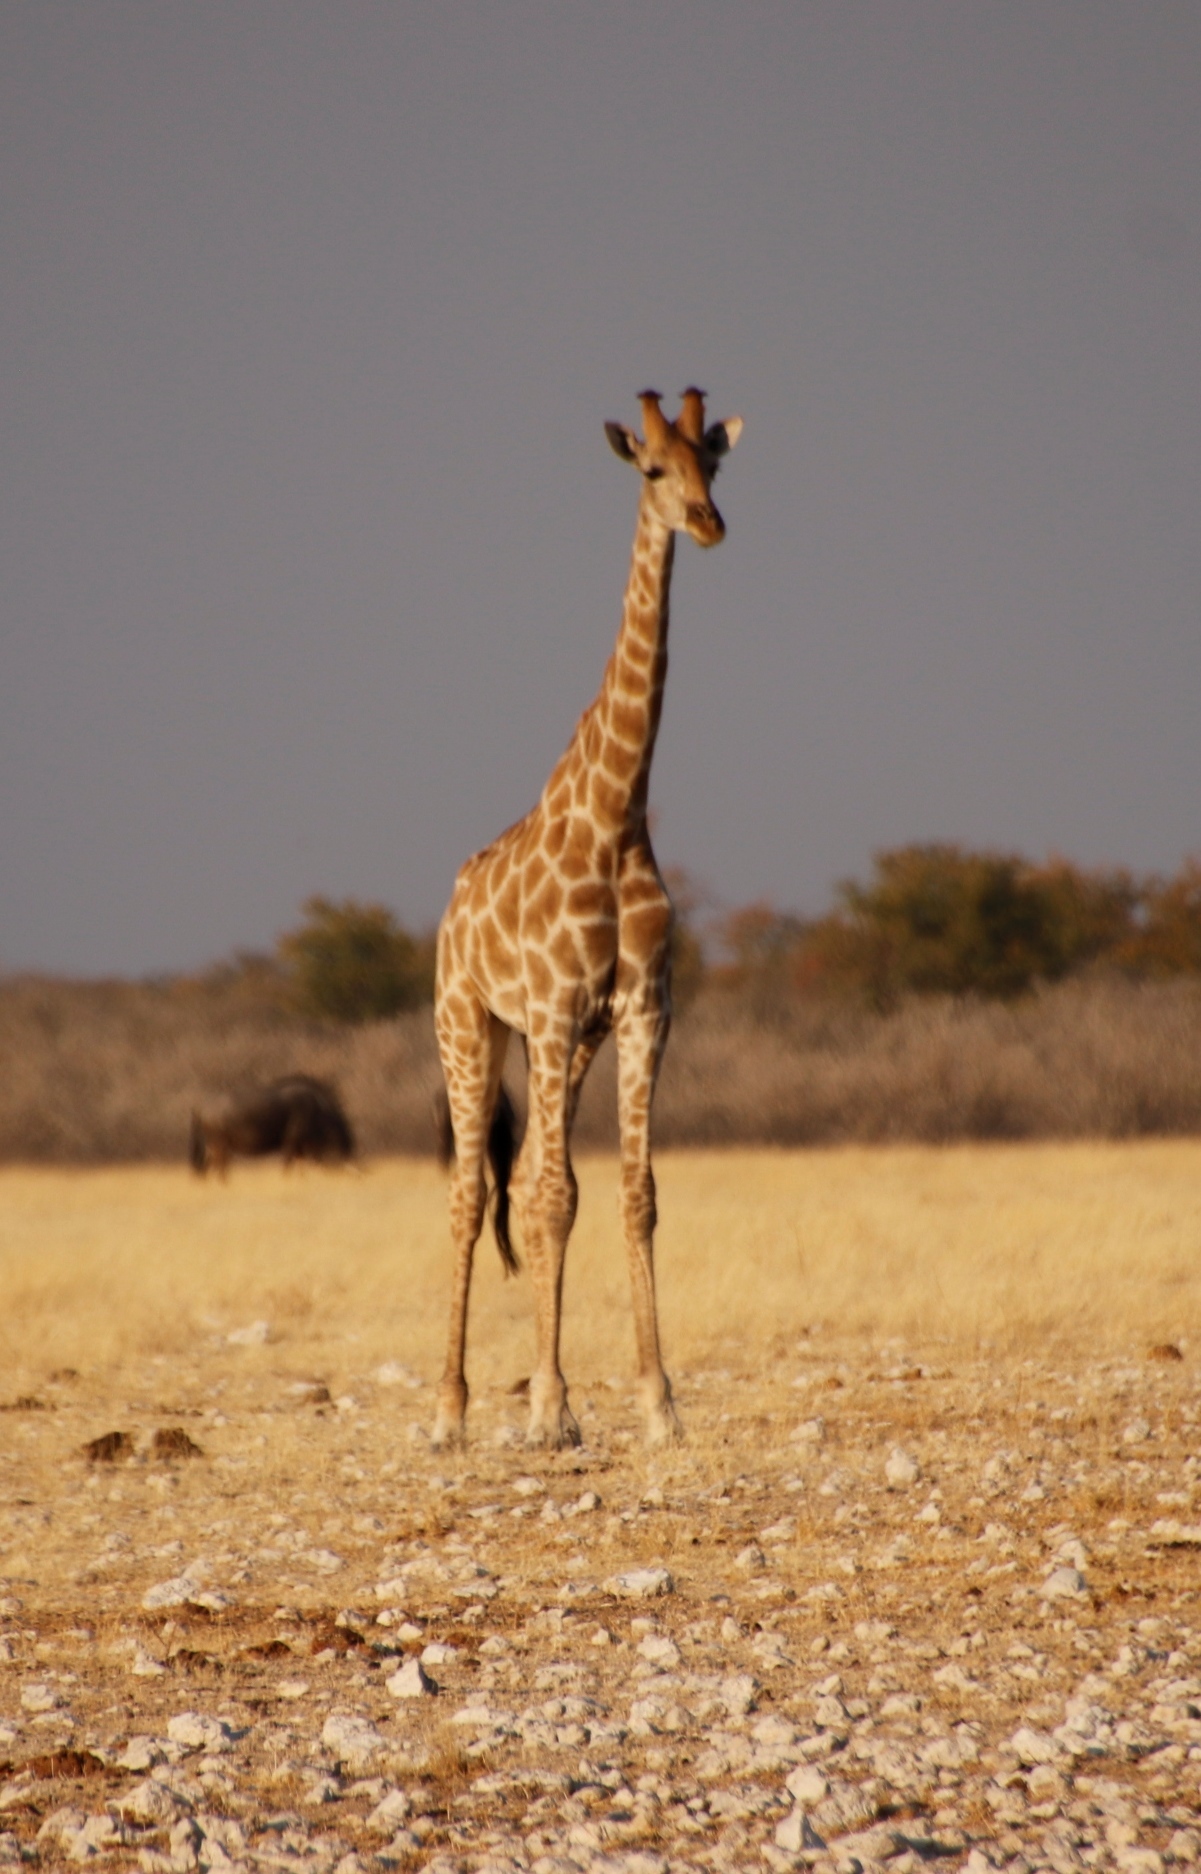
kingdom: Animalia
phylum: Chordata
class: Mammalia
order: Artiodactyla
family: Giraffidae
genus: Giraffa
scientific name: Giraffa giraffa
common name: Southern giraffe
